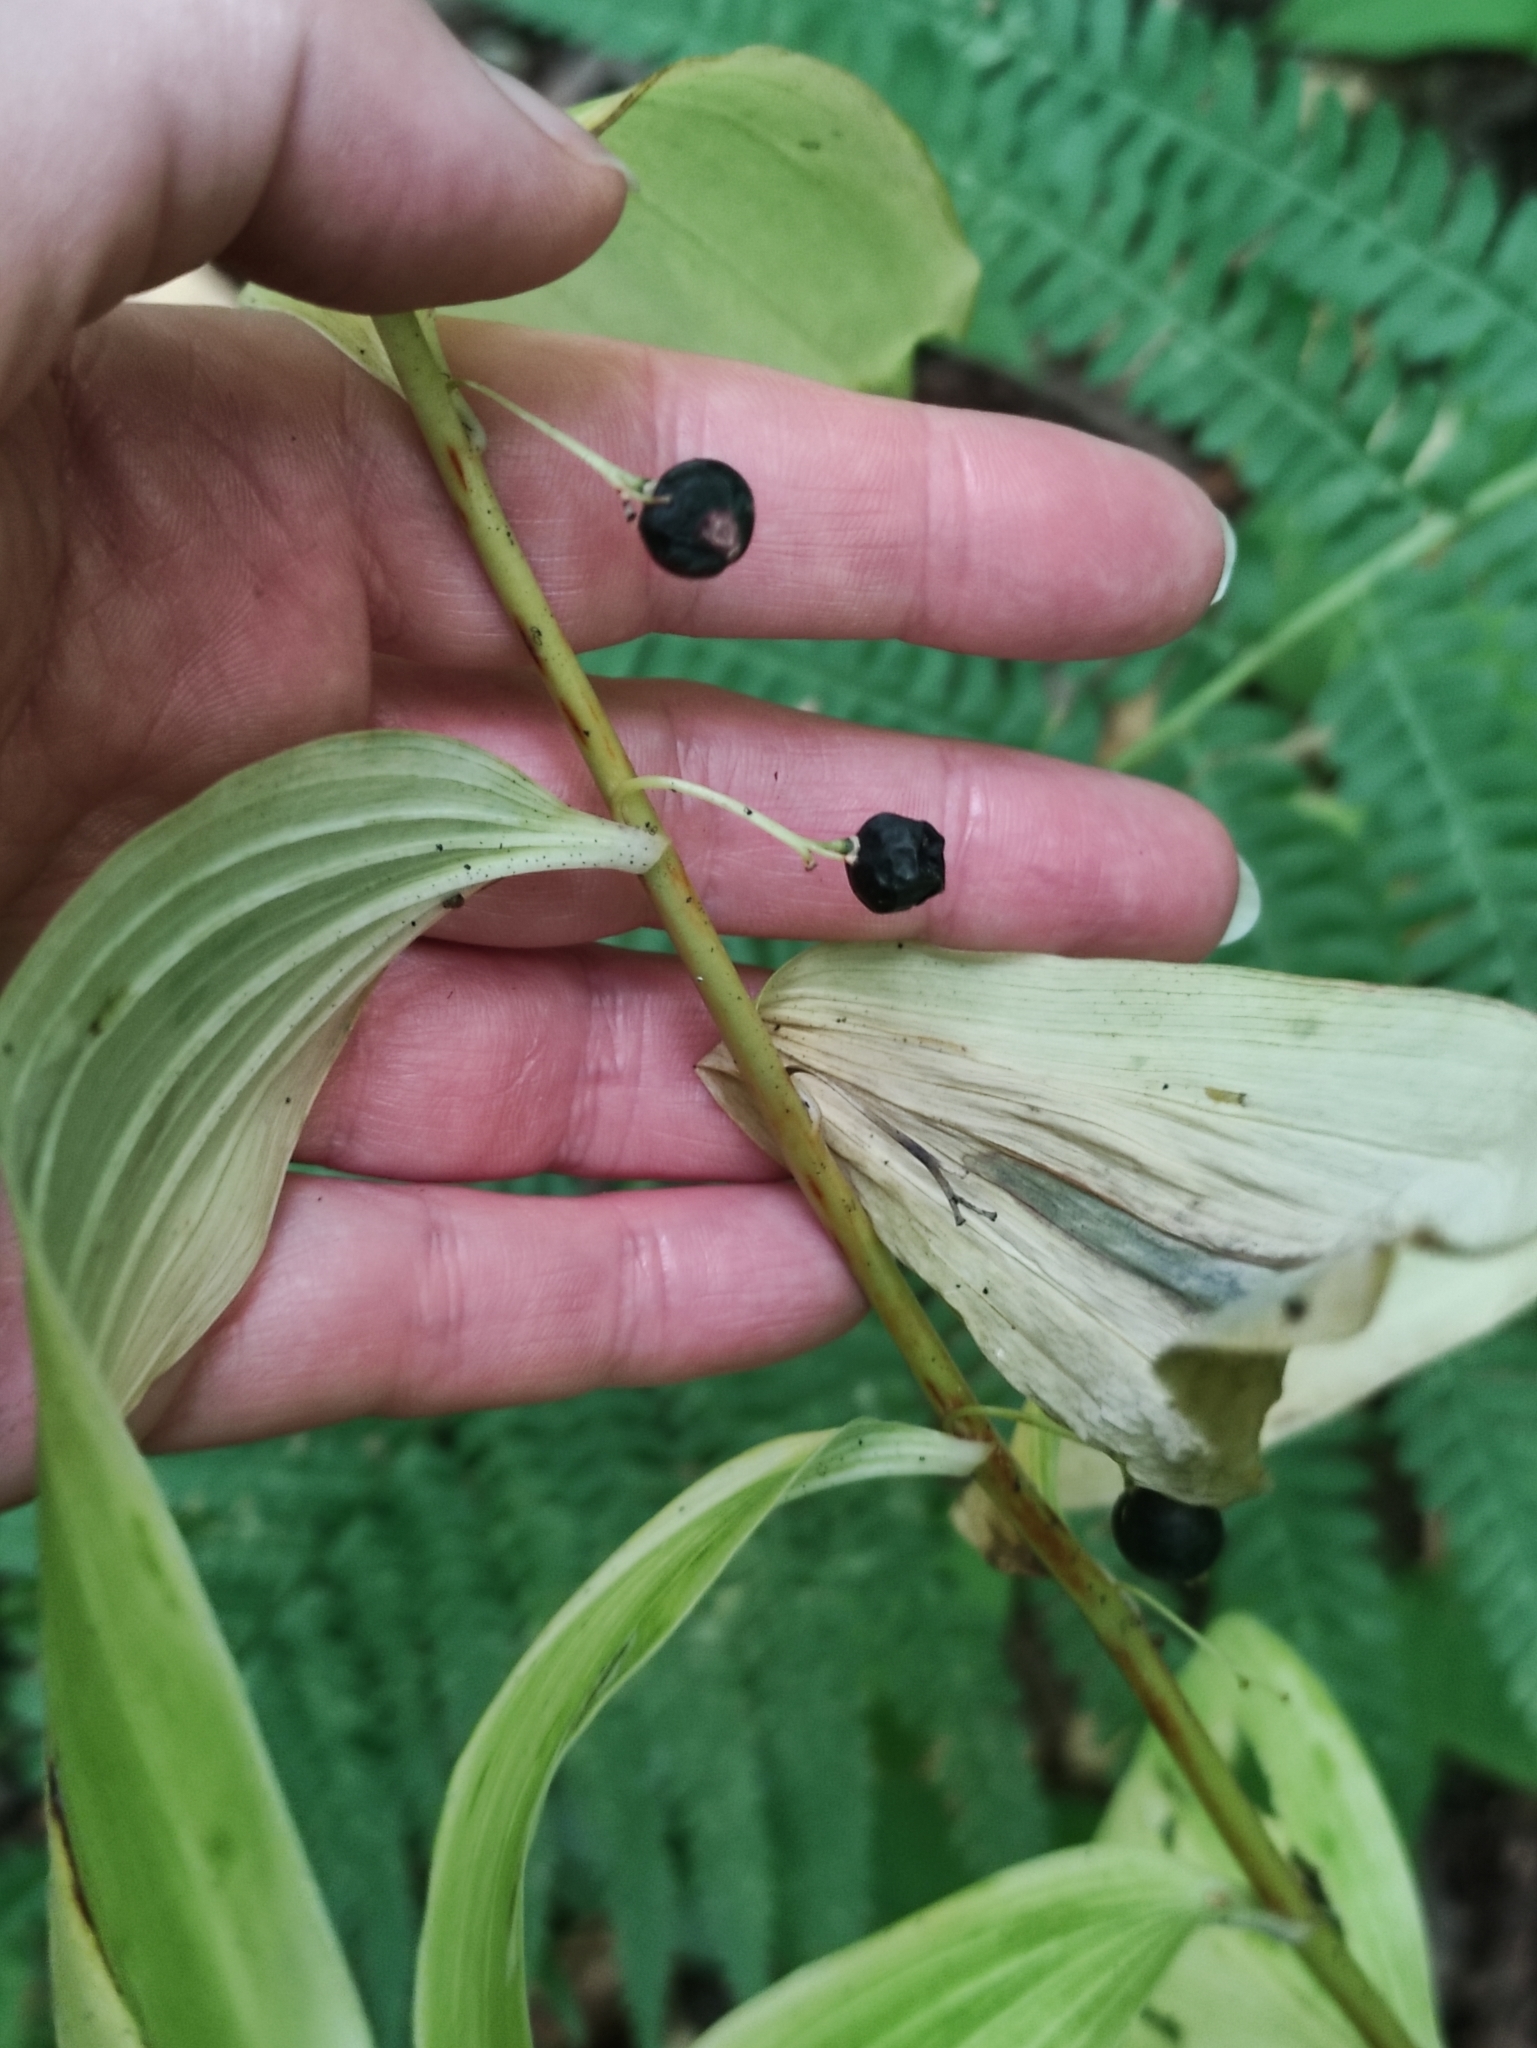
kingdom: Plantae
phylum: Tracheophyta
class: Liliopsida
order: Asparagales
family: Asparagaceae
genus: Polygonatum
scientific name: Polygonatum multiflorum
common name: Solomon's-seal
